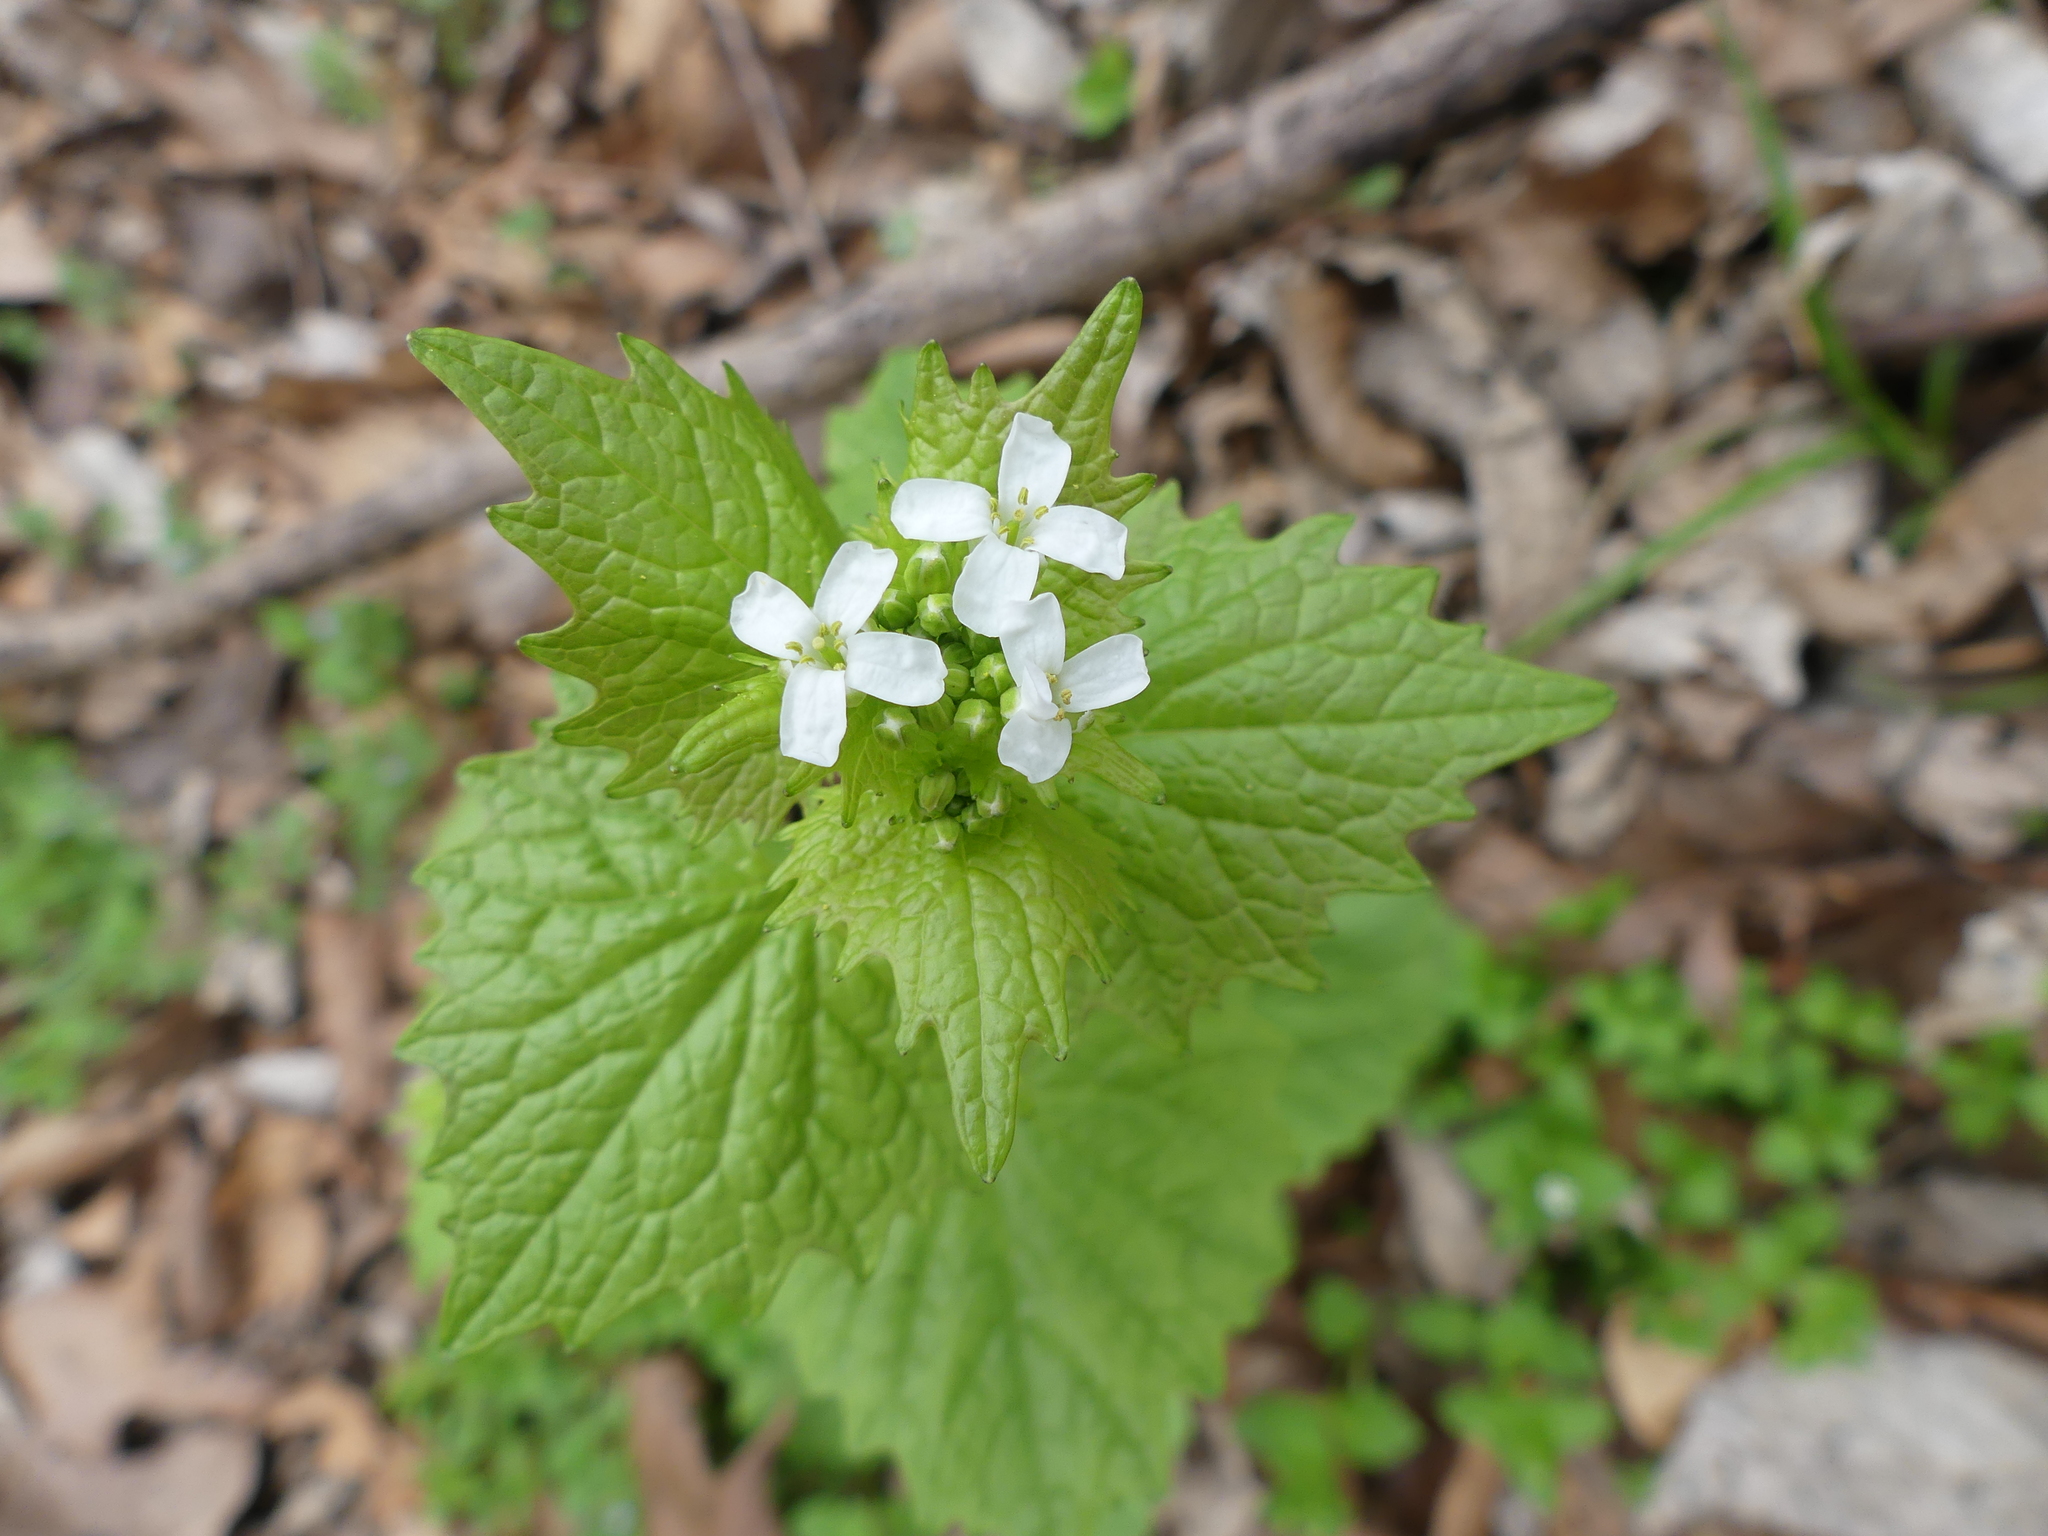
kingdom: Plantae
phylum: Tracheophyta
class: Magnoliopsida
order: Brassicales
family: Brassicaceae
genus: Alliaria
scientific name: Alliaria petiolata
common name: Garlic mustard
